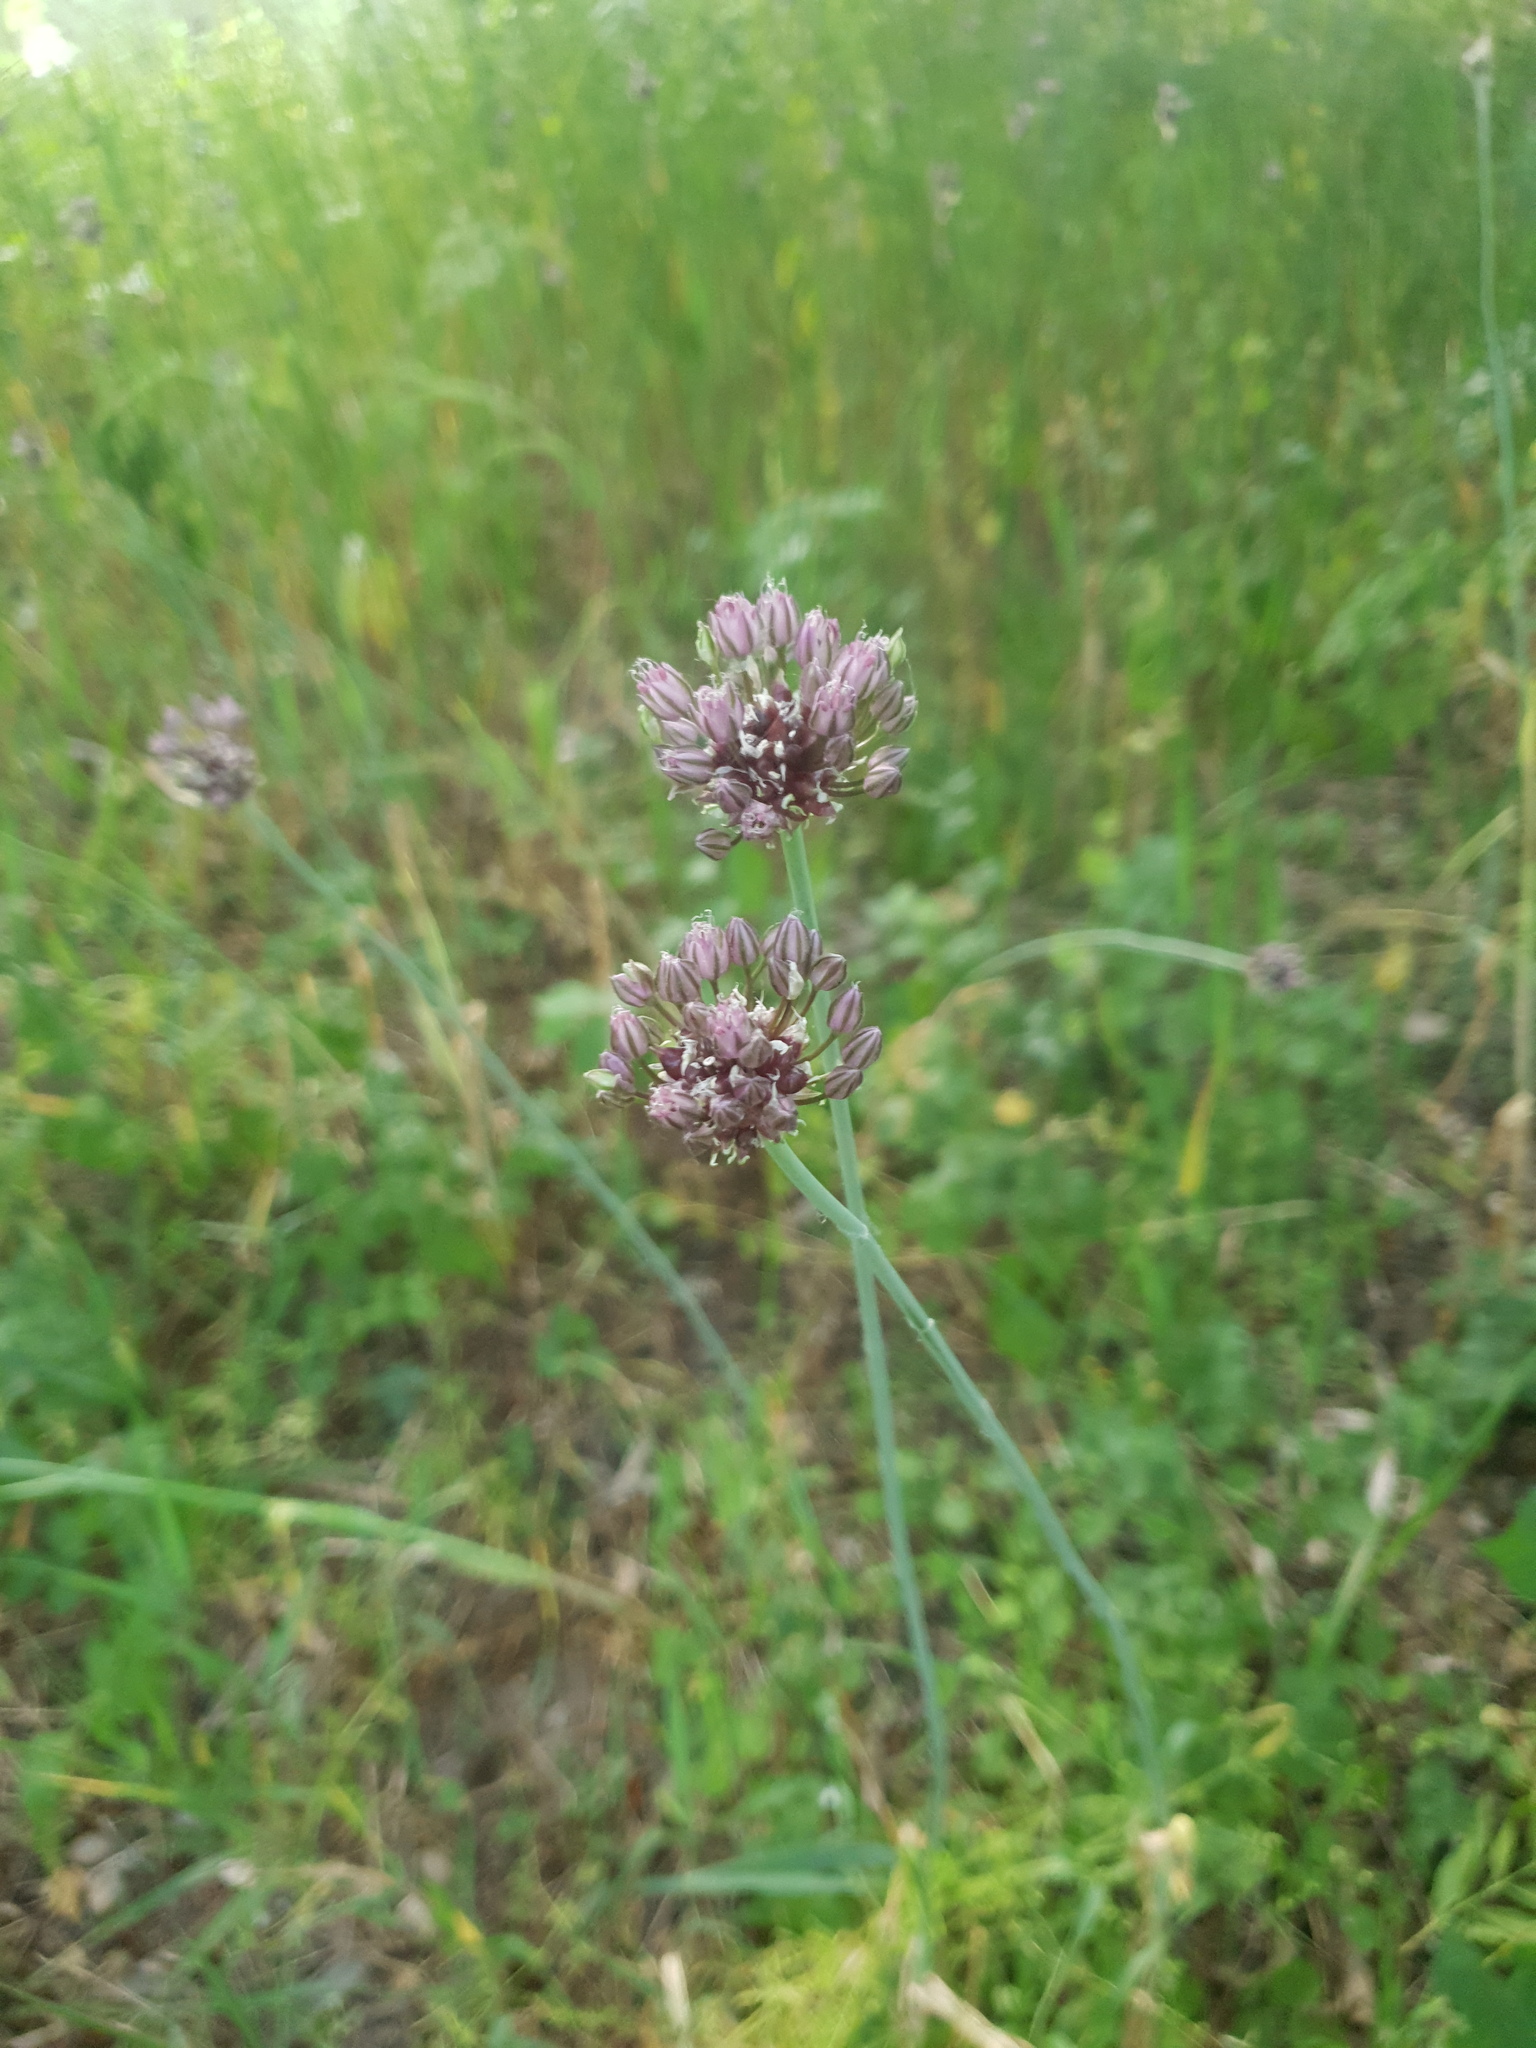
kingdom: Plantae
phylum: Tracheophyta
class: Liliopsida
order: Asparagales
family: Amaryllidaceae
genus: Allium
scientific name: Allium scorodoprasum
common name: Sand leek
